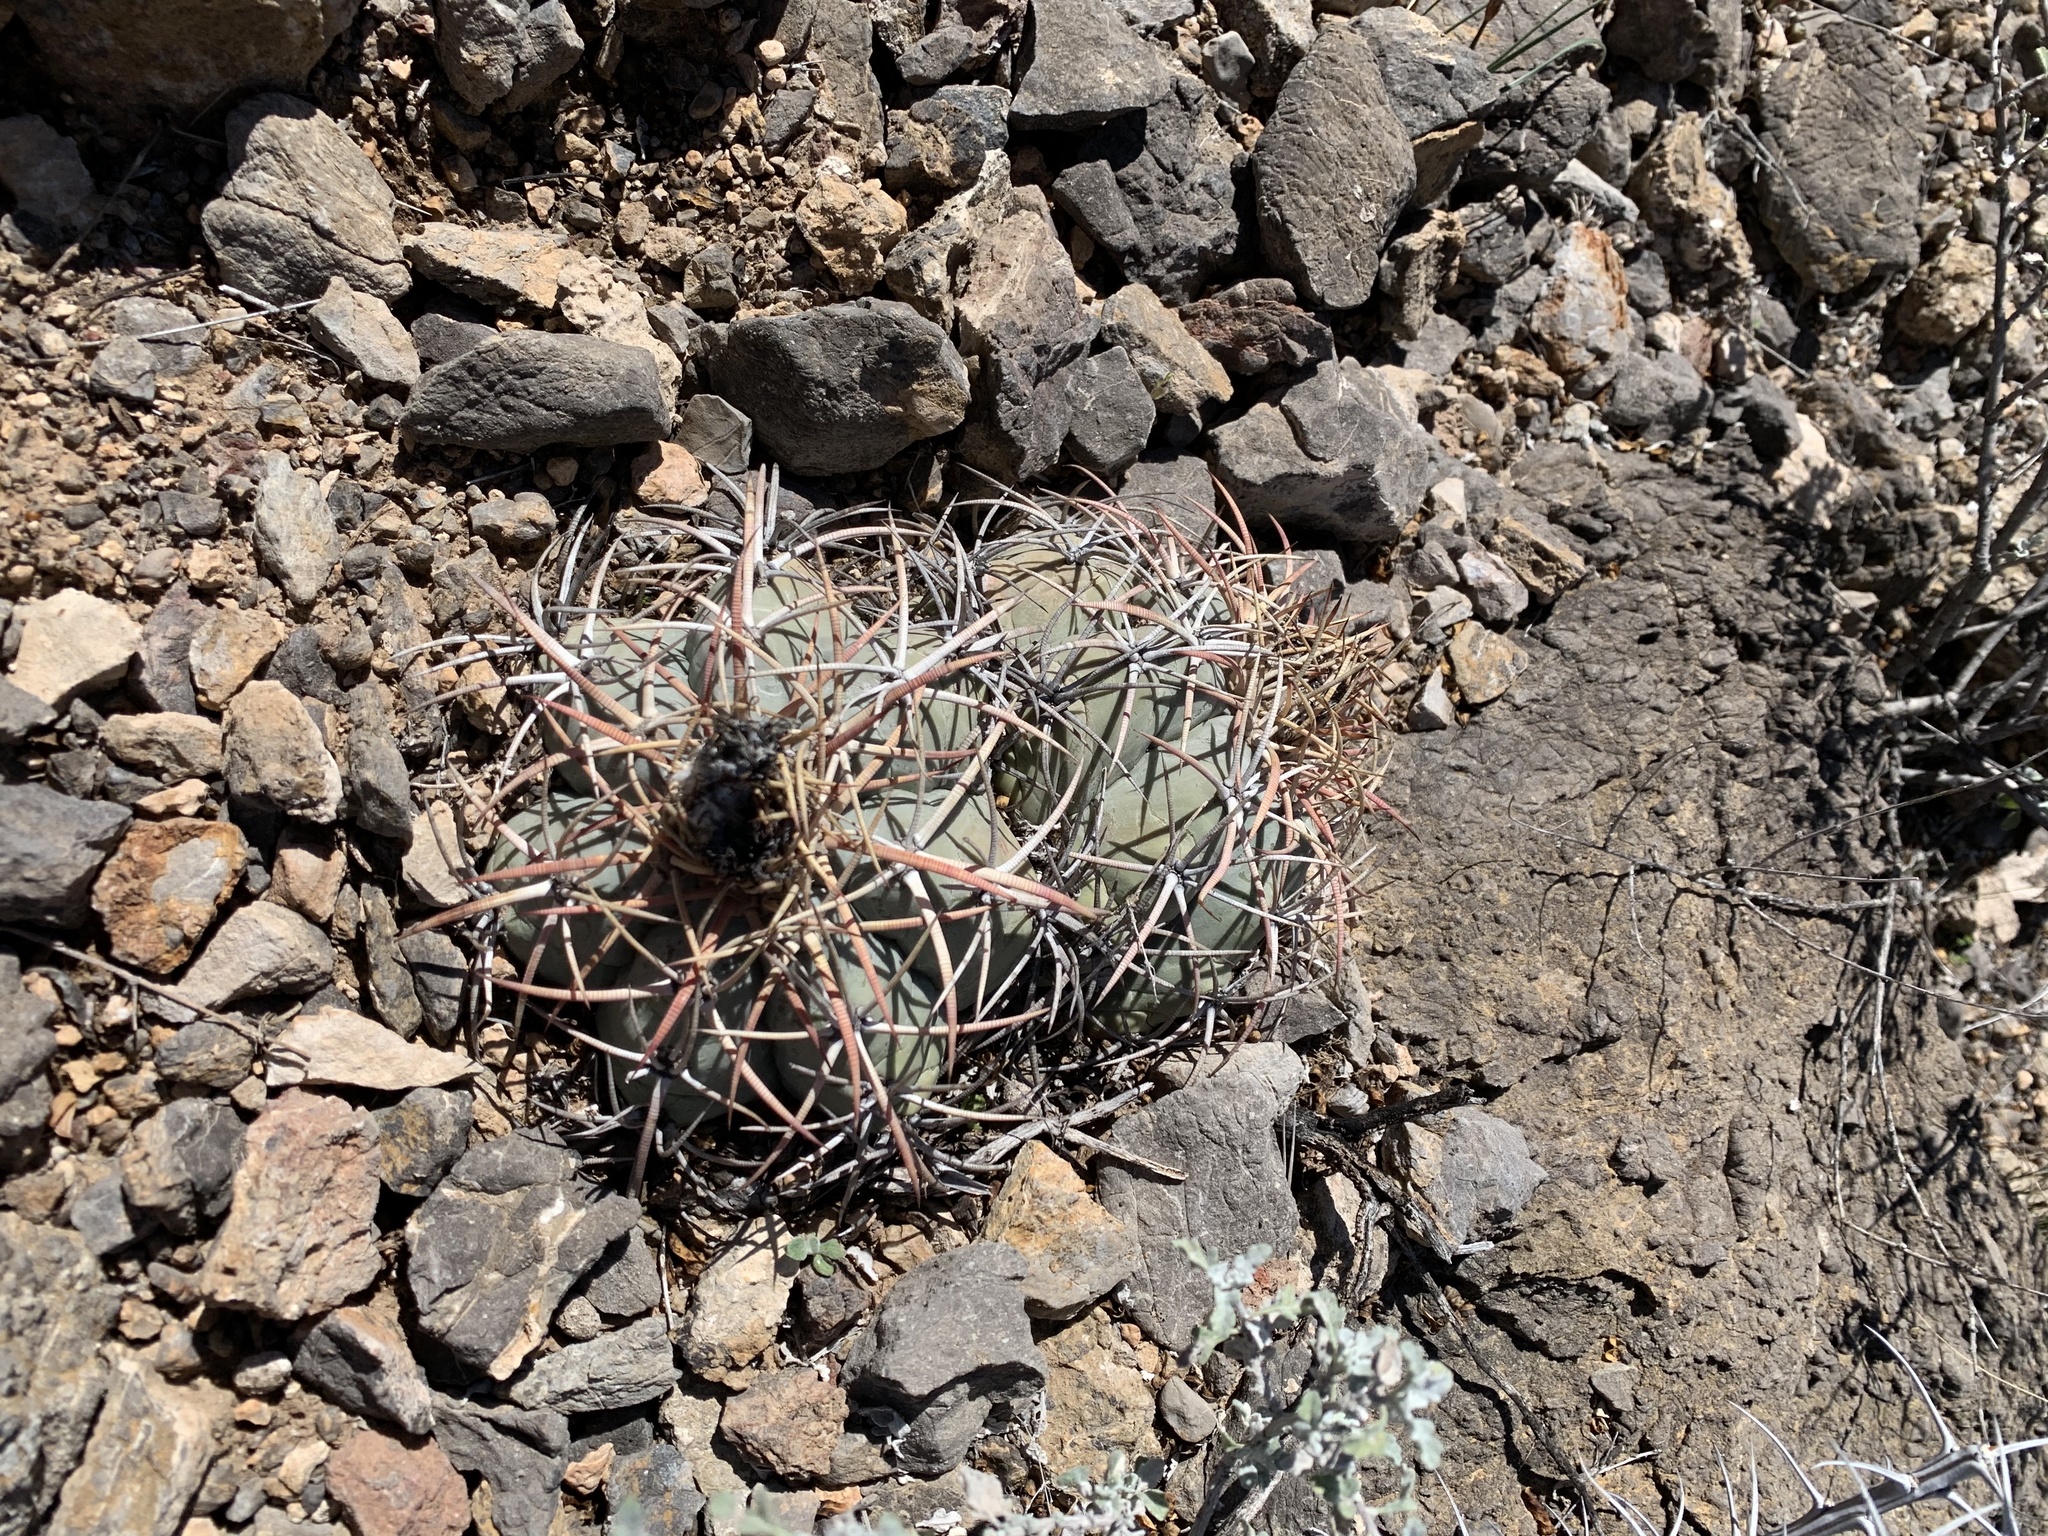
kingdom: Plantae
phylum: Tracheophyta
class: Magnoliopsida
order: Caryophyllales
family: Cactaceae
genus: Echinocactus
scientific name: Echinocactus horizonthalonius
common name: Devilshead
